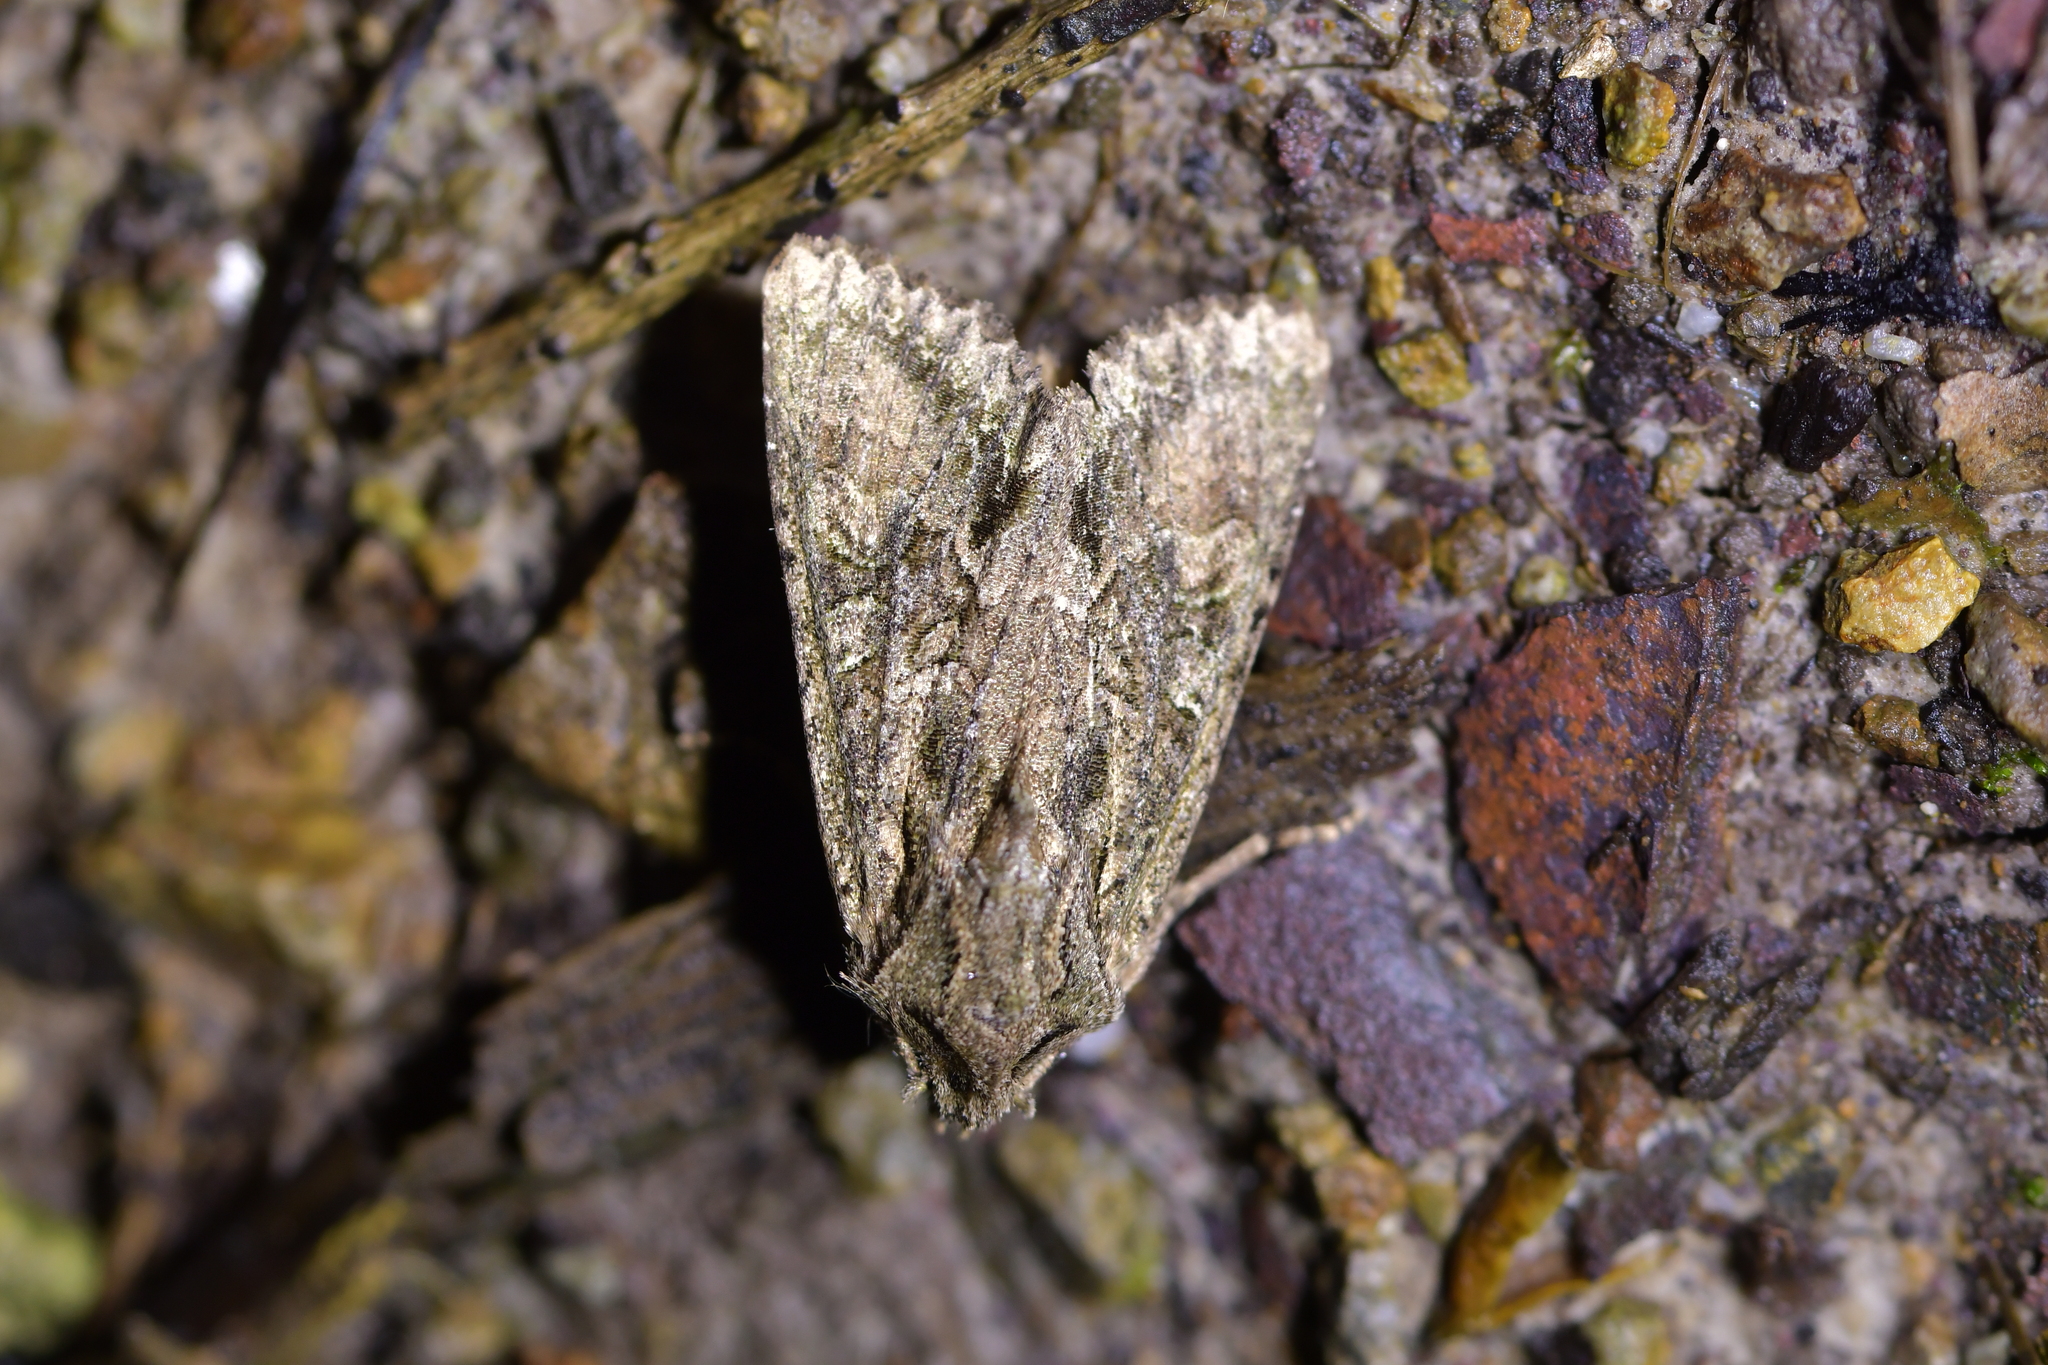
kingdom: Animalia
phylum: Arthropoda
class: Insecta
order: Lepidoptera
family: Noctuidae
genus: Ichneutica
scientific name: Ichneutica mutans
